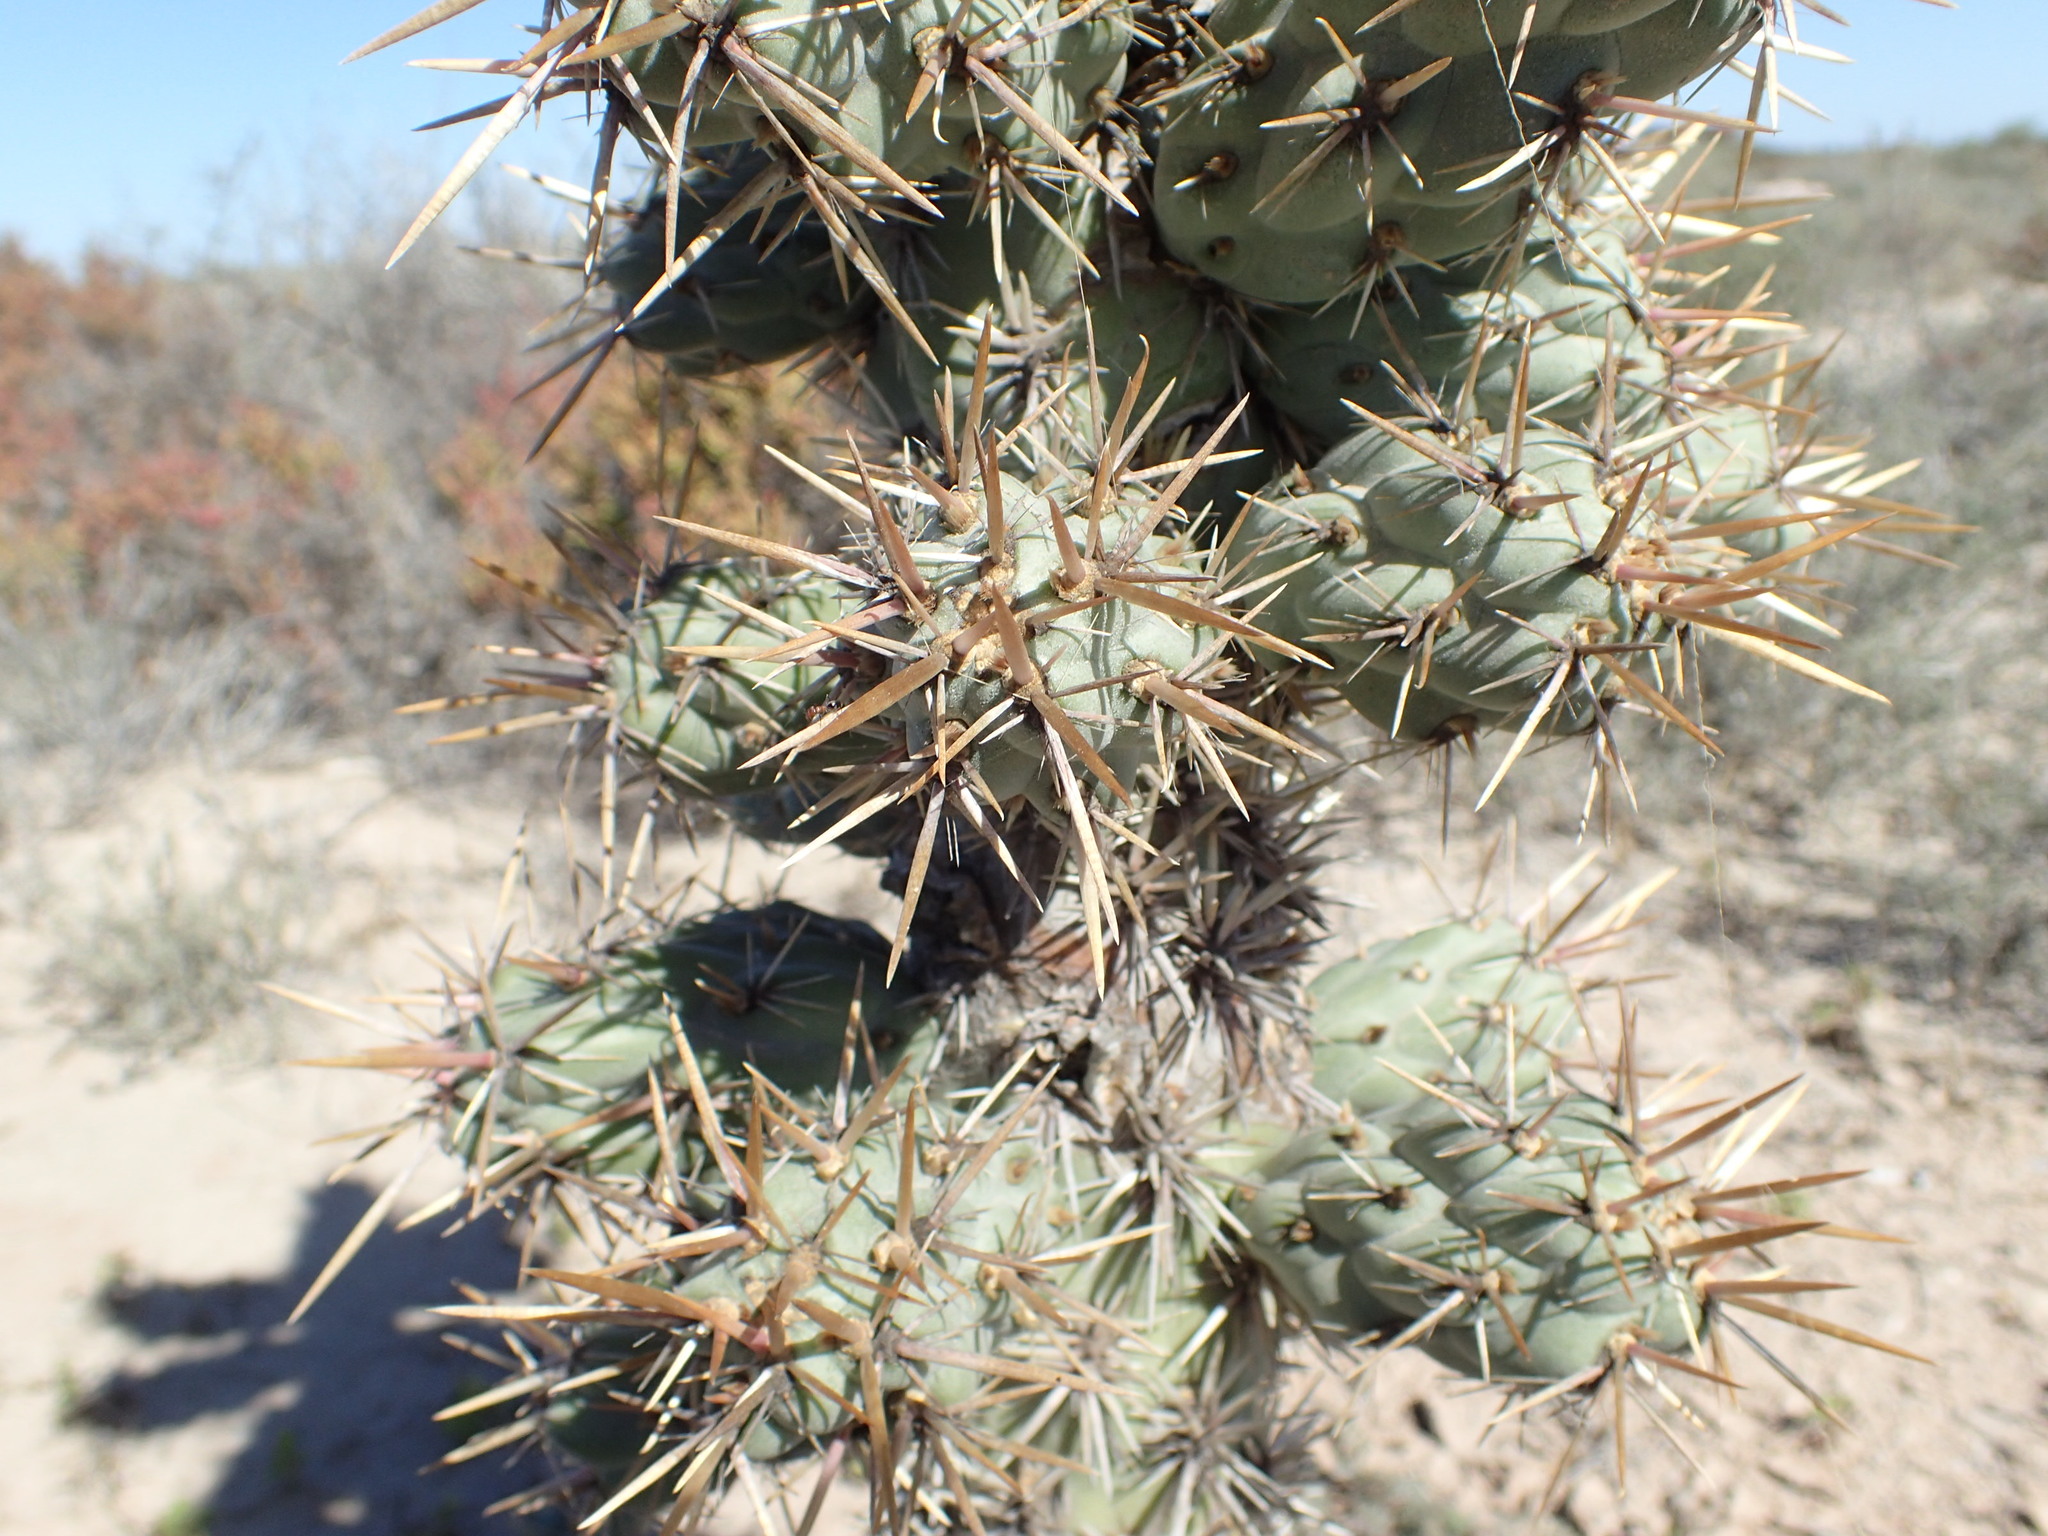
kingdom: Plantae
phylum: Tracheophyta
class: Magnoliopsida
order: Caryophyllales
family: Cactaceae
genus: Cylindropuntia
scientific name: Cylindropuntia cholla
